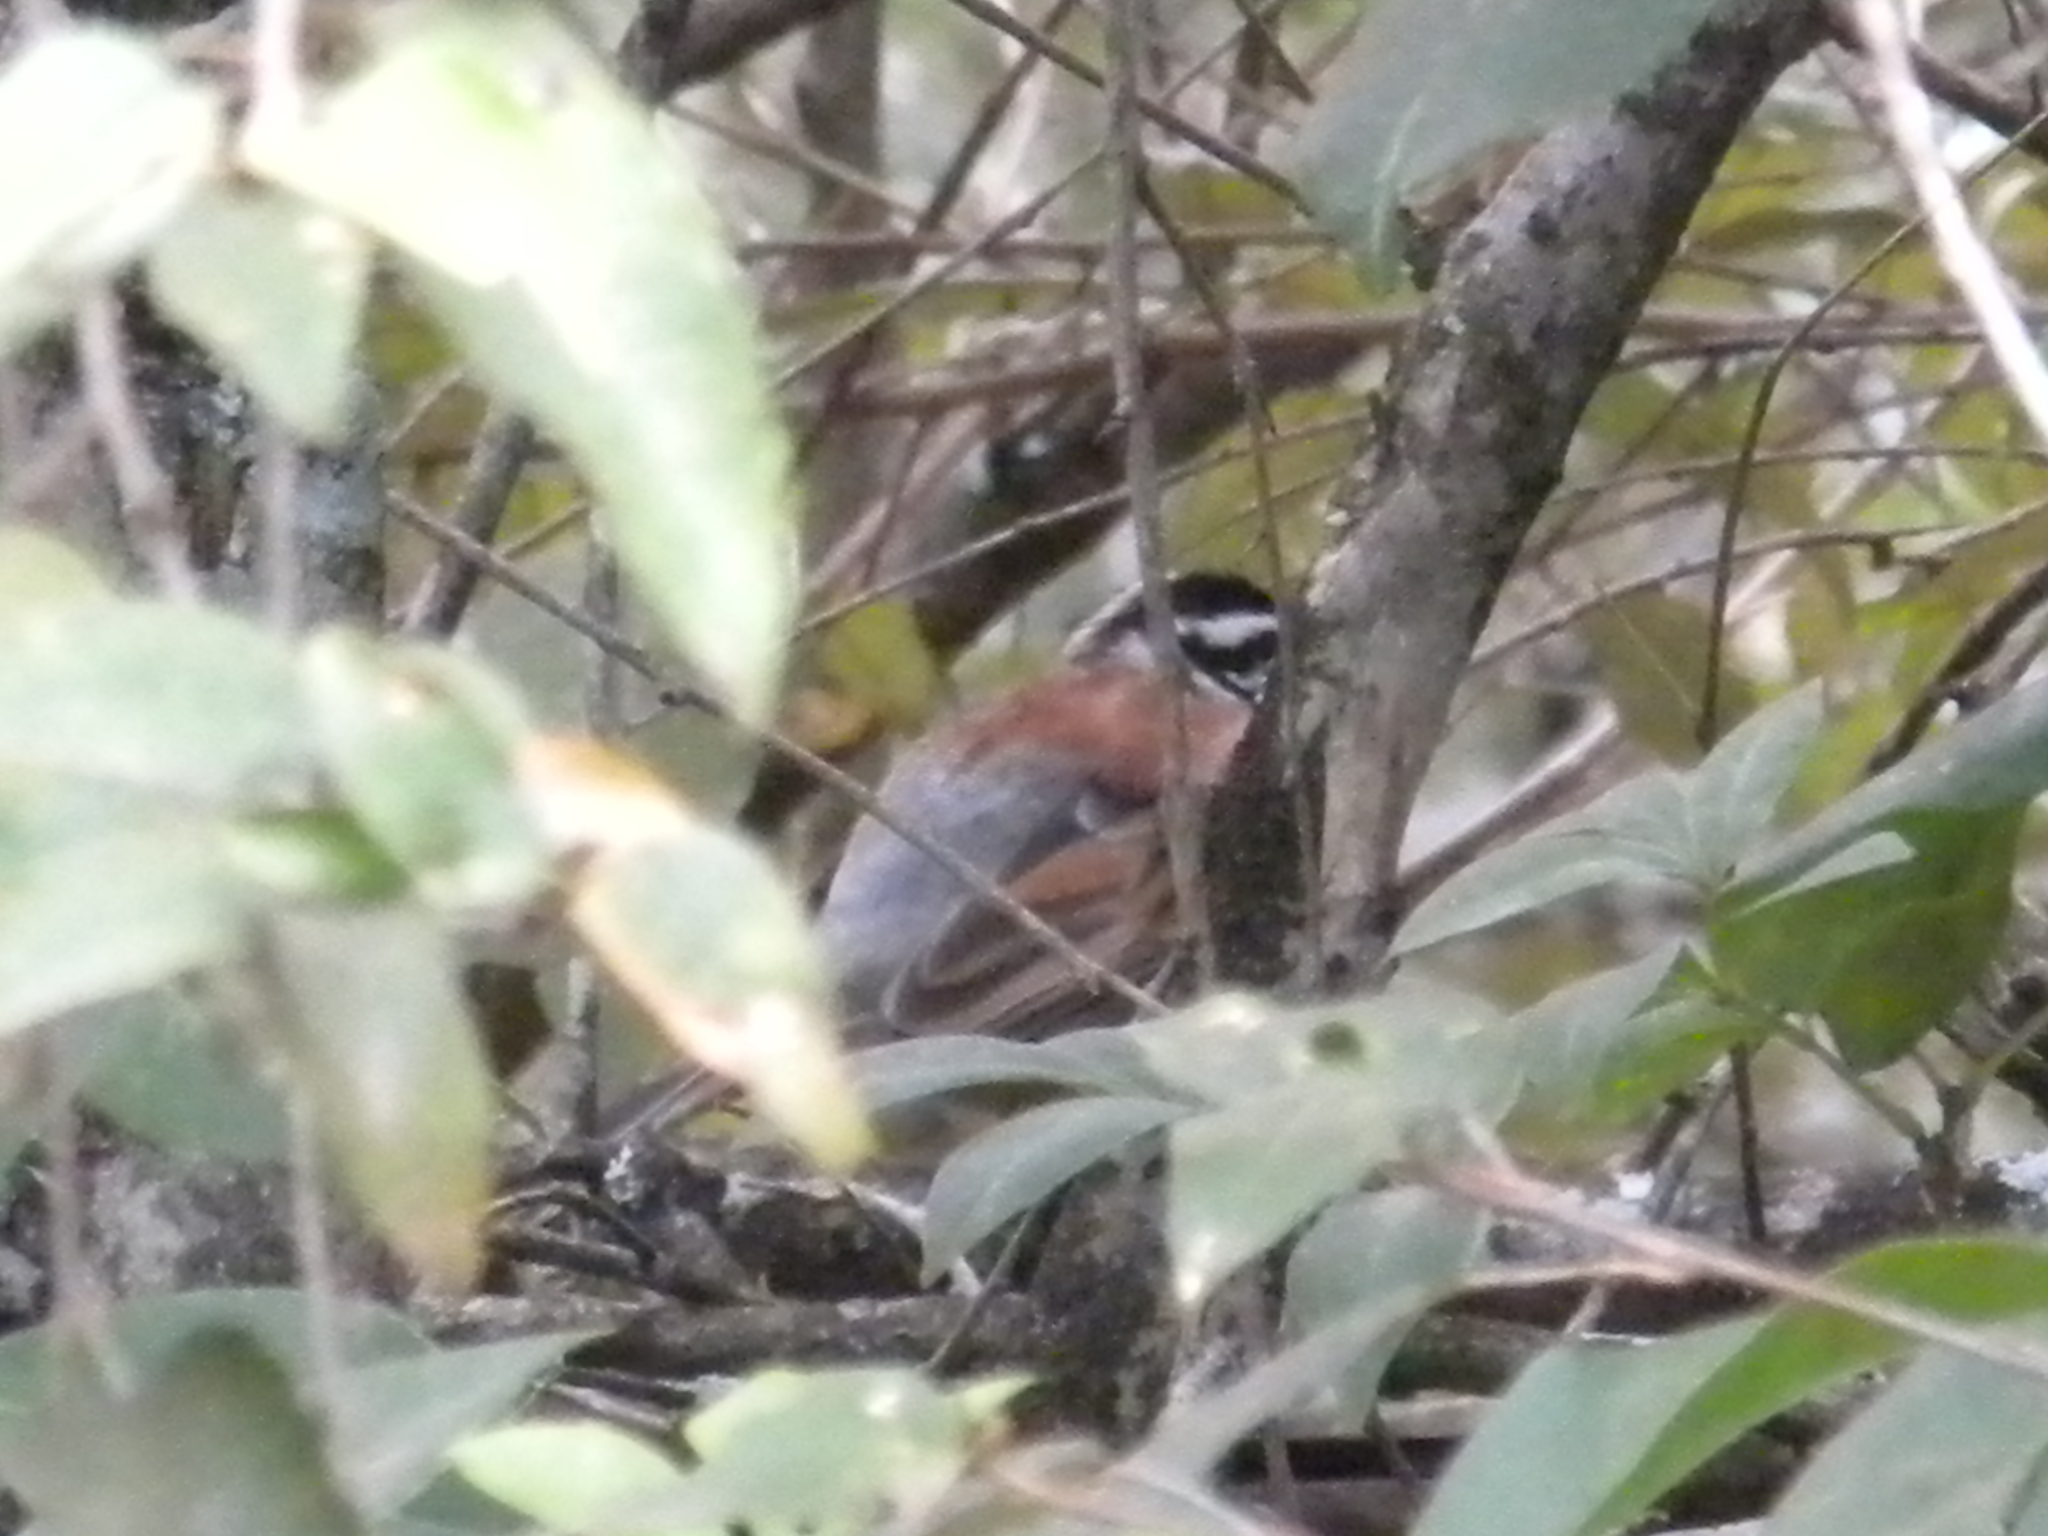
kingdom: Animalia
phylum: Chordata
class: Aves
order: Passeriformes
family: Emberizidae
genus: Emberiza
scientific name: Emberiza flaviventris
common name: Golden-breasted bunting
